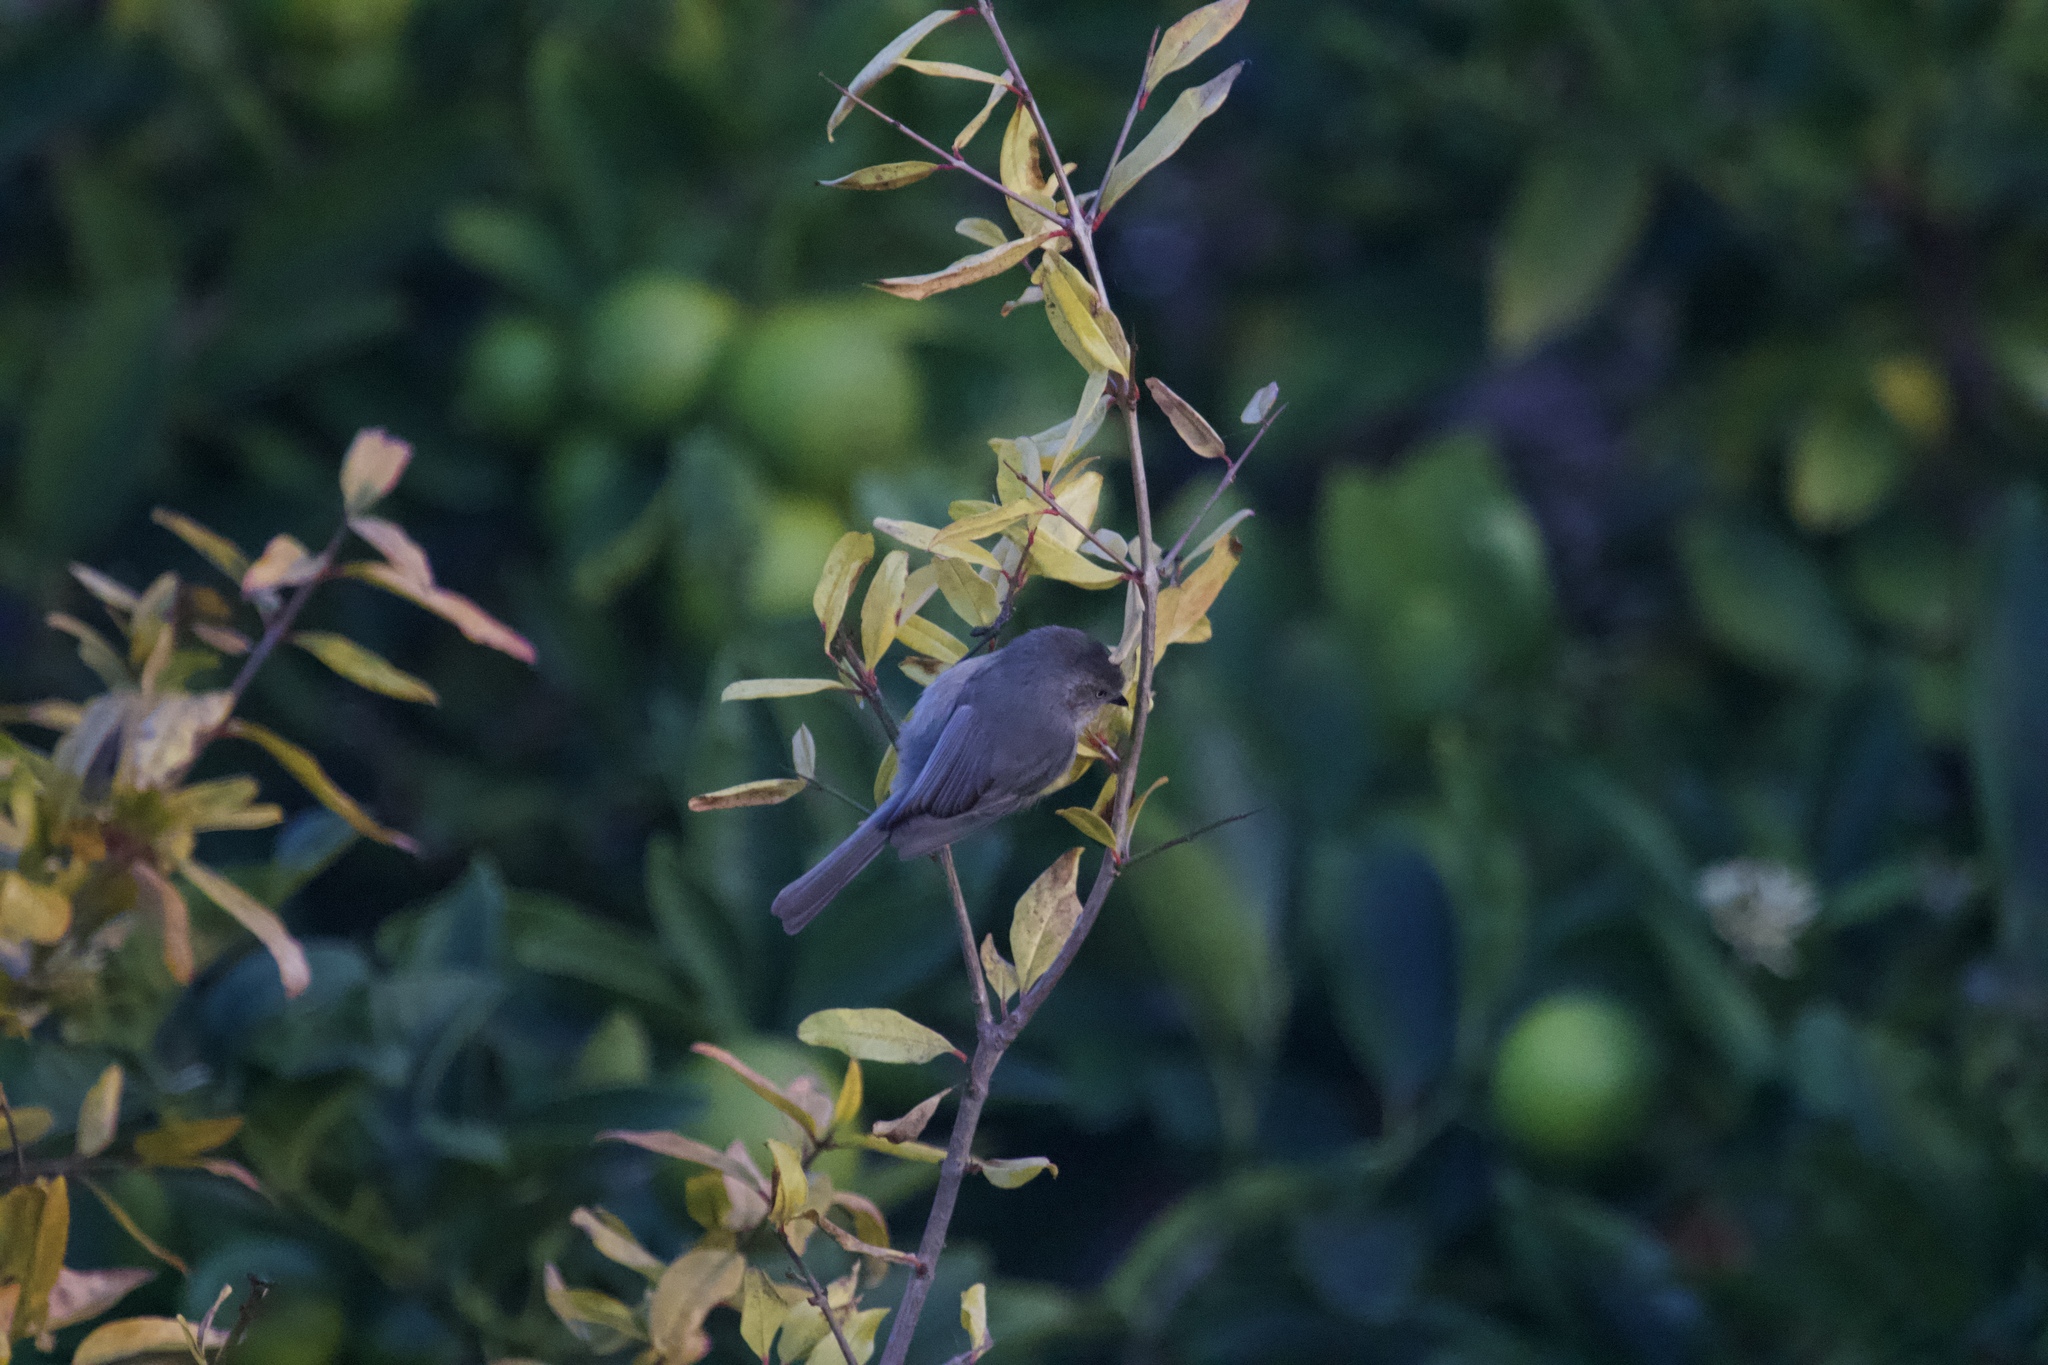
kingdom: Animalia
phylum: Chordata
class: Aves
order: Passeriformes
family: Aegithalidae
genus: Psaltriparus
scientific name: Psaltriparus minimus
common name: American bushtit
